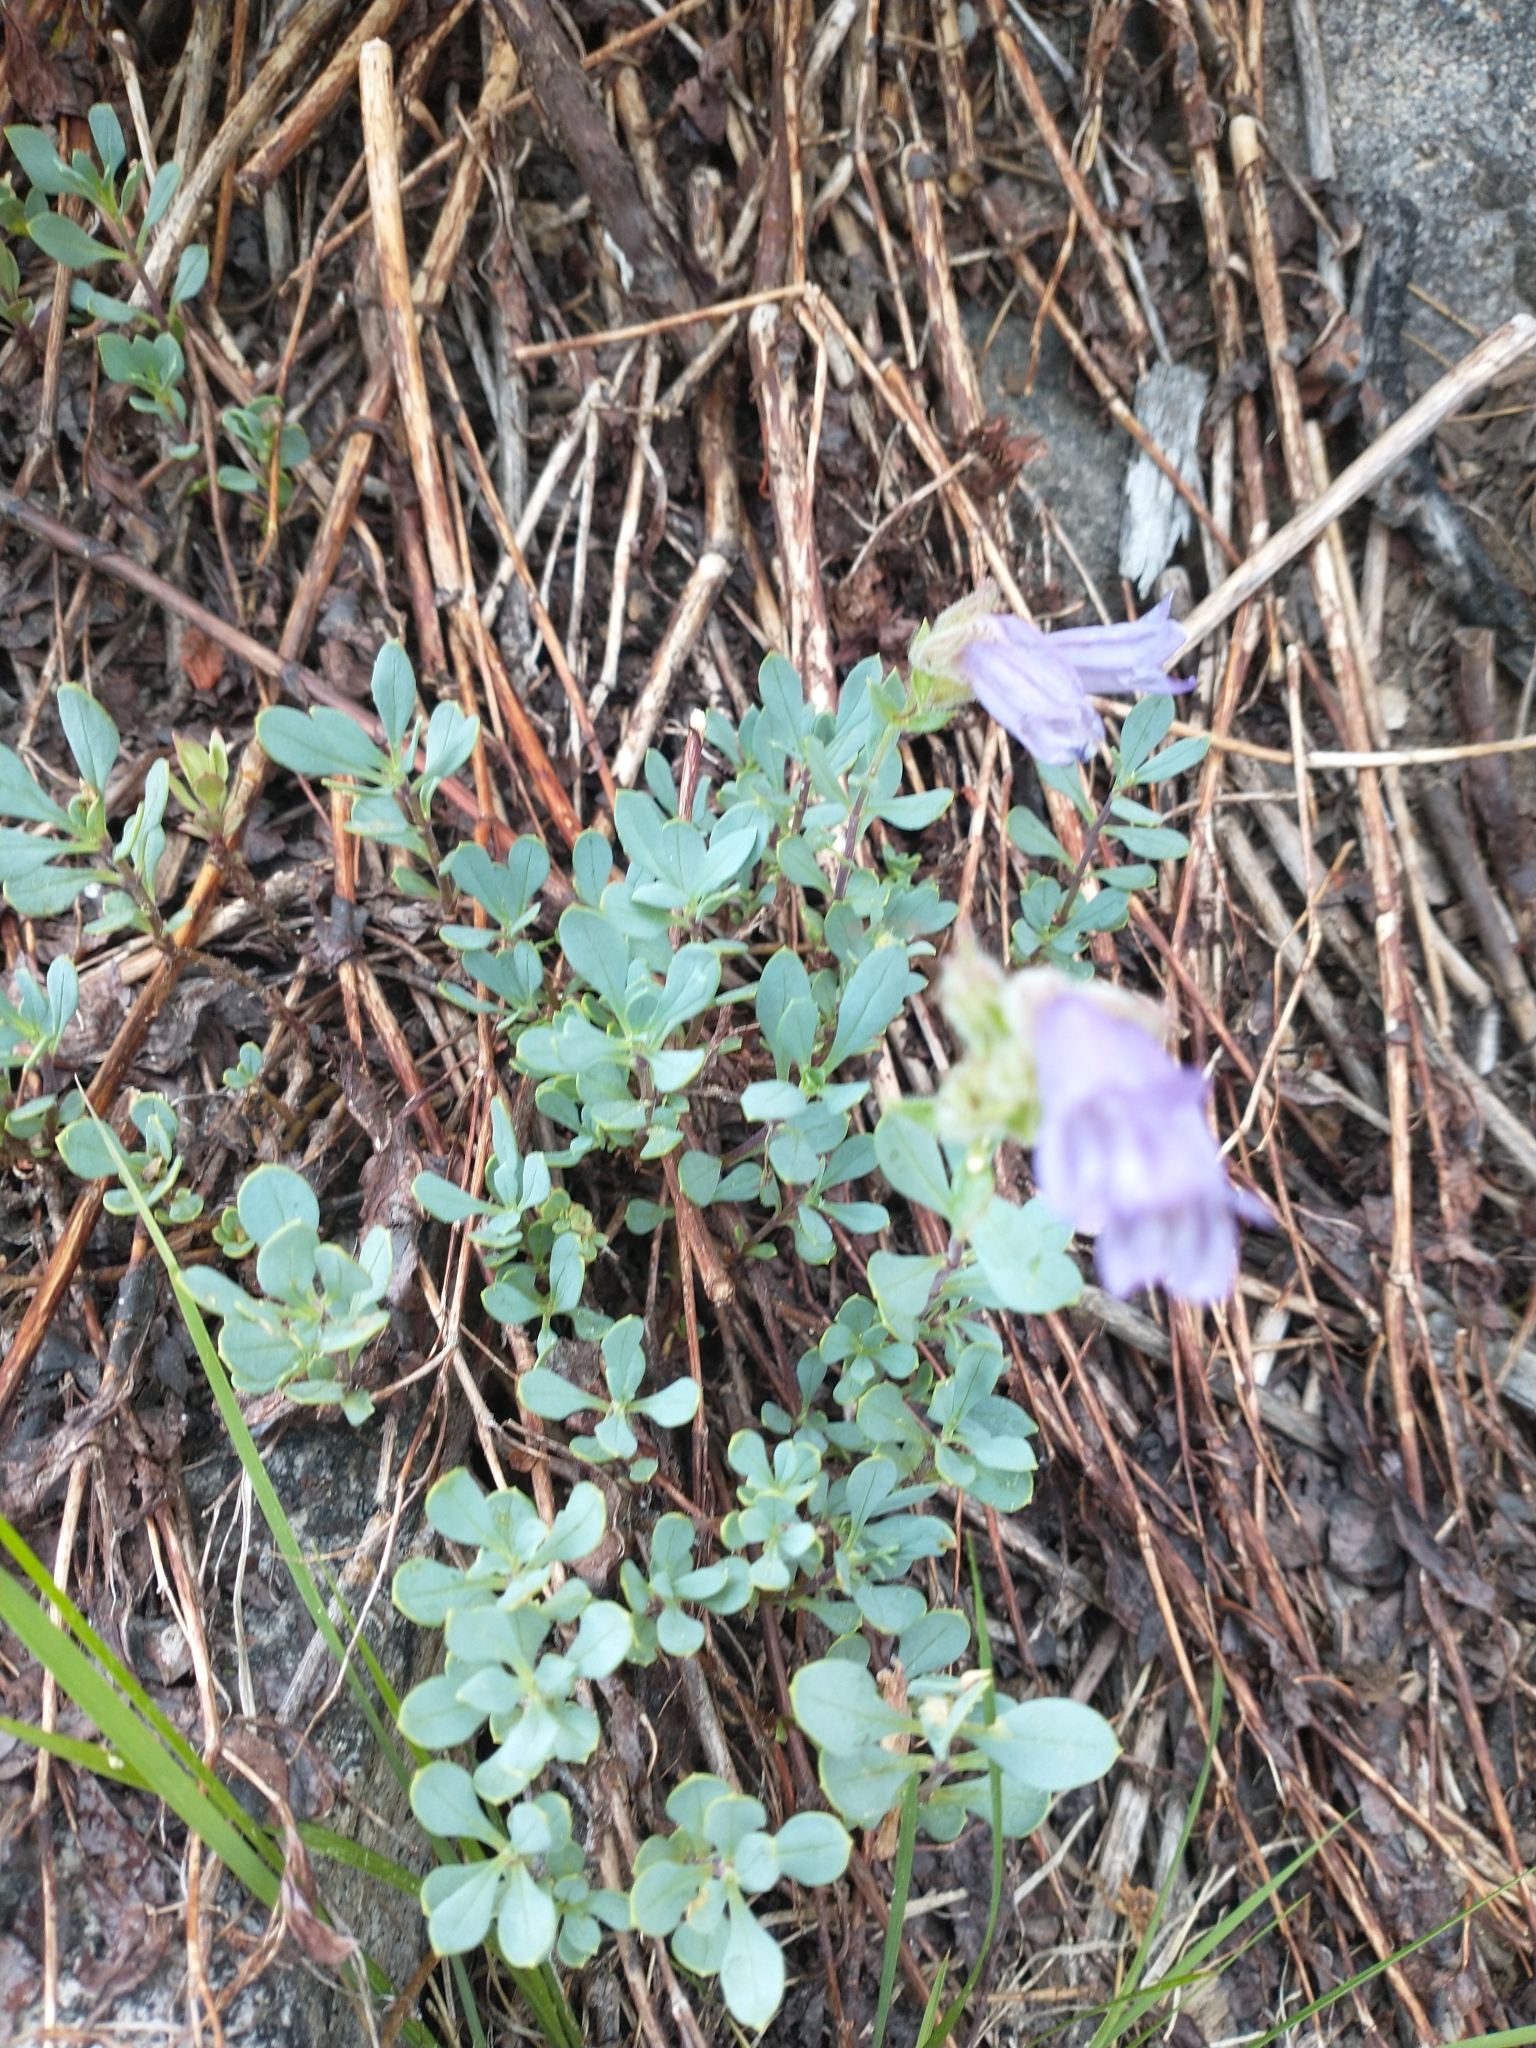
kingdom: Plantae
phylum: Tracheophyta
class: Magnoliopsida
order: Lamiales
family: Plantaginaceae
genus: Penstemon
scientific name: Penstemon montanus
